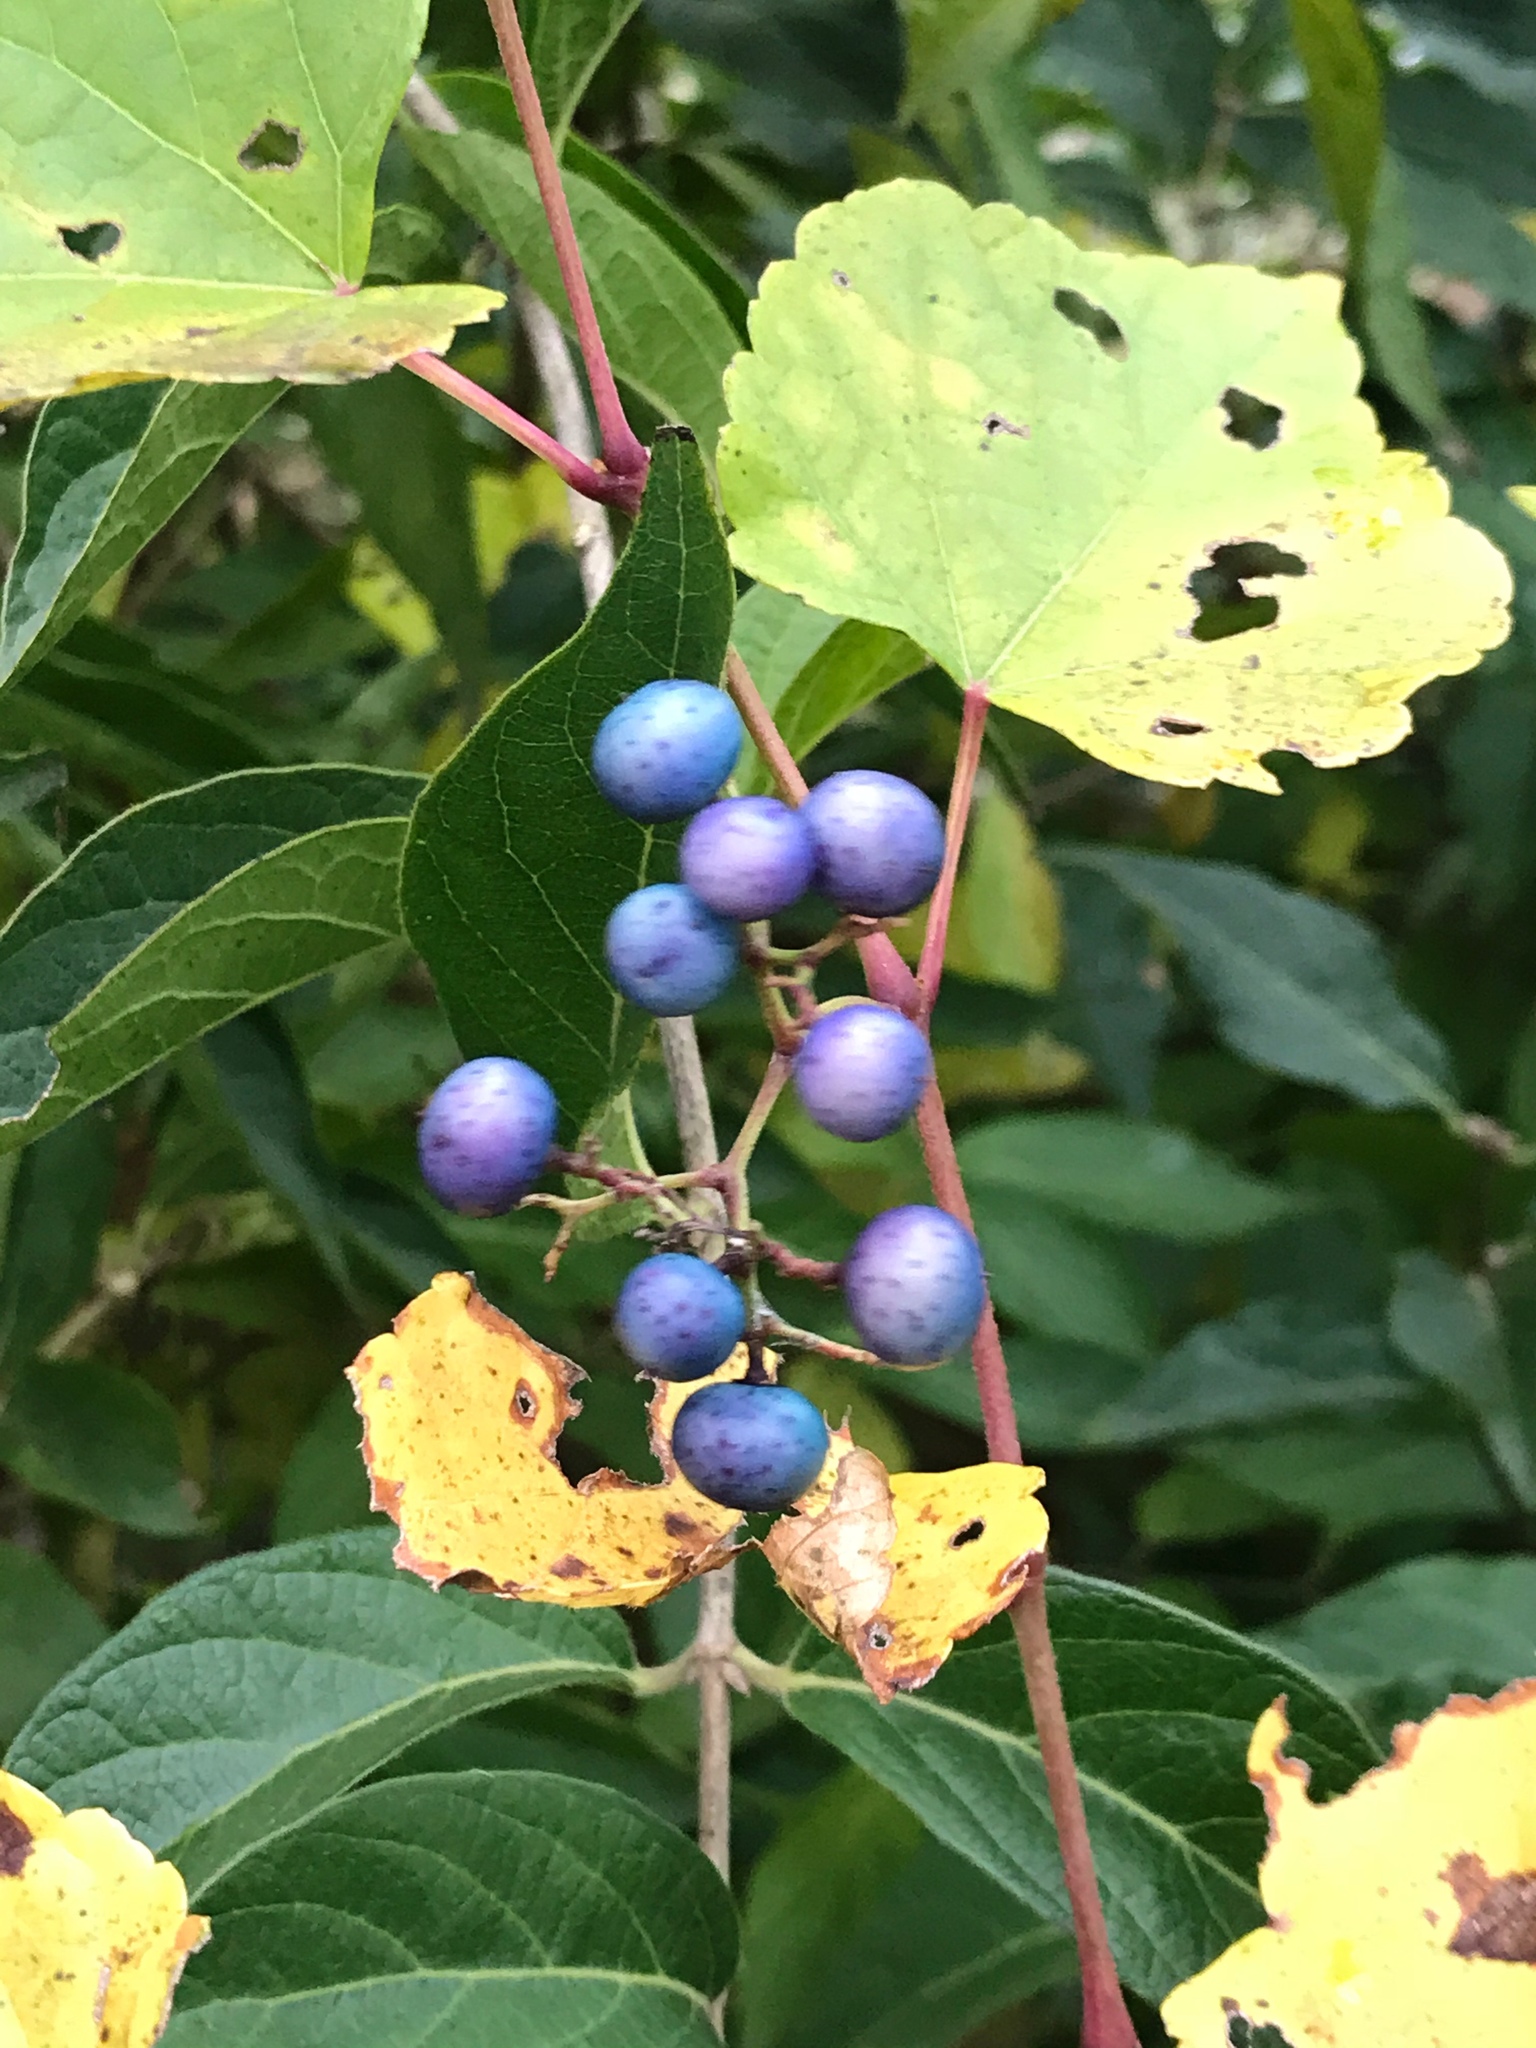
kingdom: Plantae
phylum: Tracheophyta
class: Magnoliopsida
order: Vitales
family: Vitaceae
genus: Ampelopsis
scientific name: Ampelopsis glandulosa
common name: Amur peppervine
